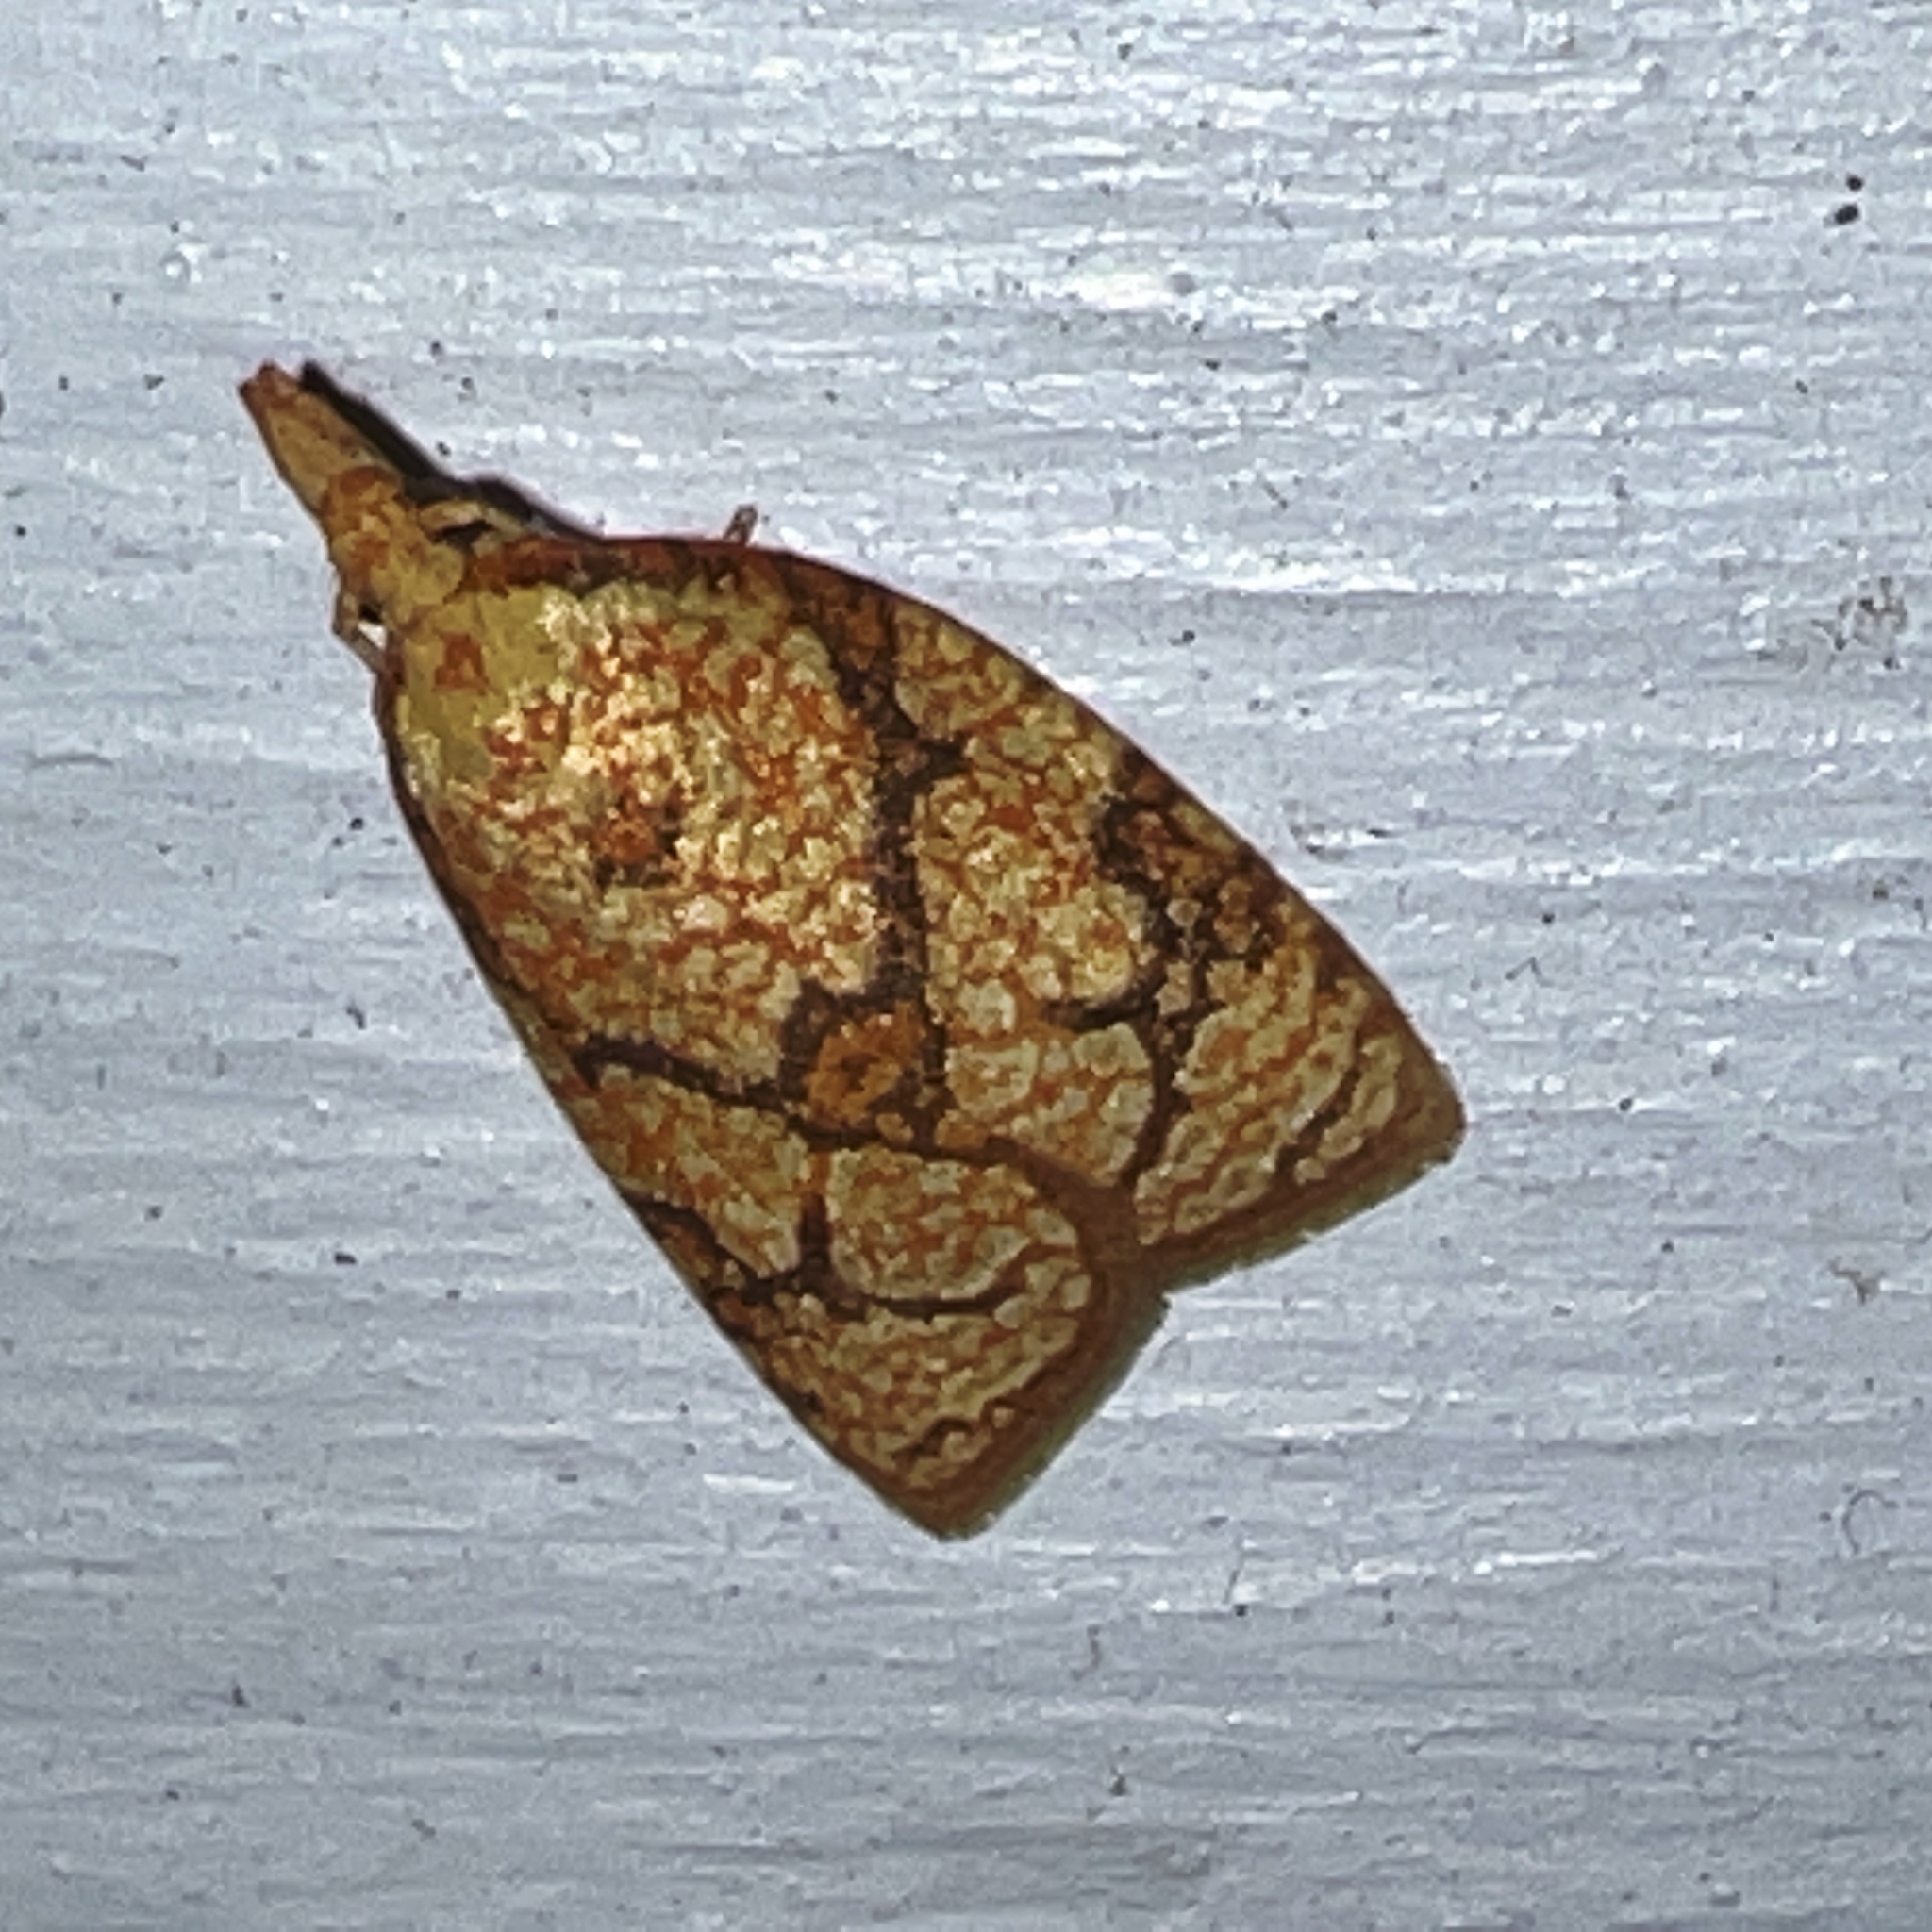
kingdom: Animalia
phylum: Arthropoda
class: Insecta
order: Lepidoptera
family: Tortricidae
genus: Cenopis
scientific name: Cenopis reticulatana
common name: Reticulated fruitworm moth
